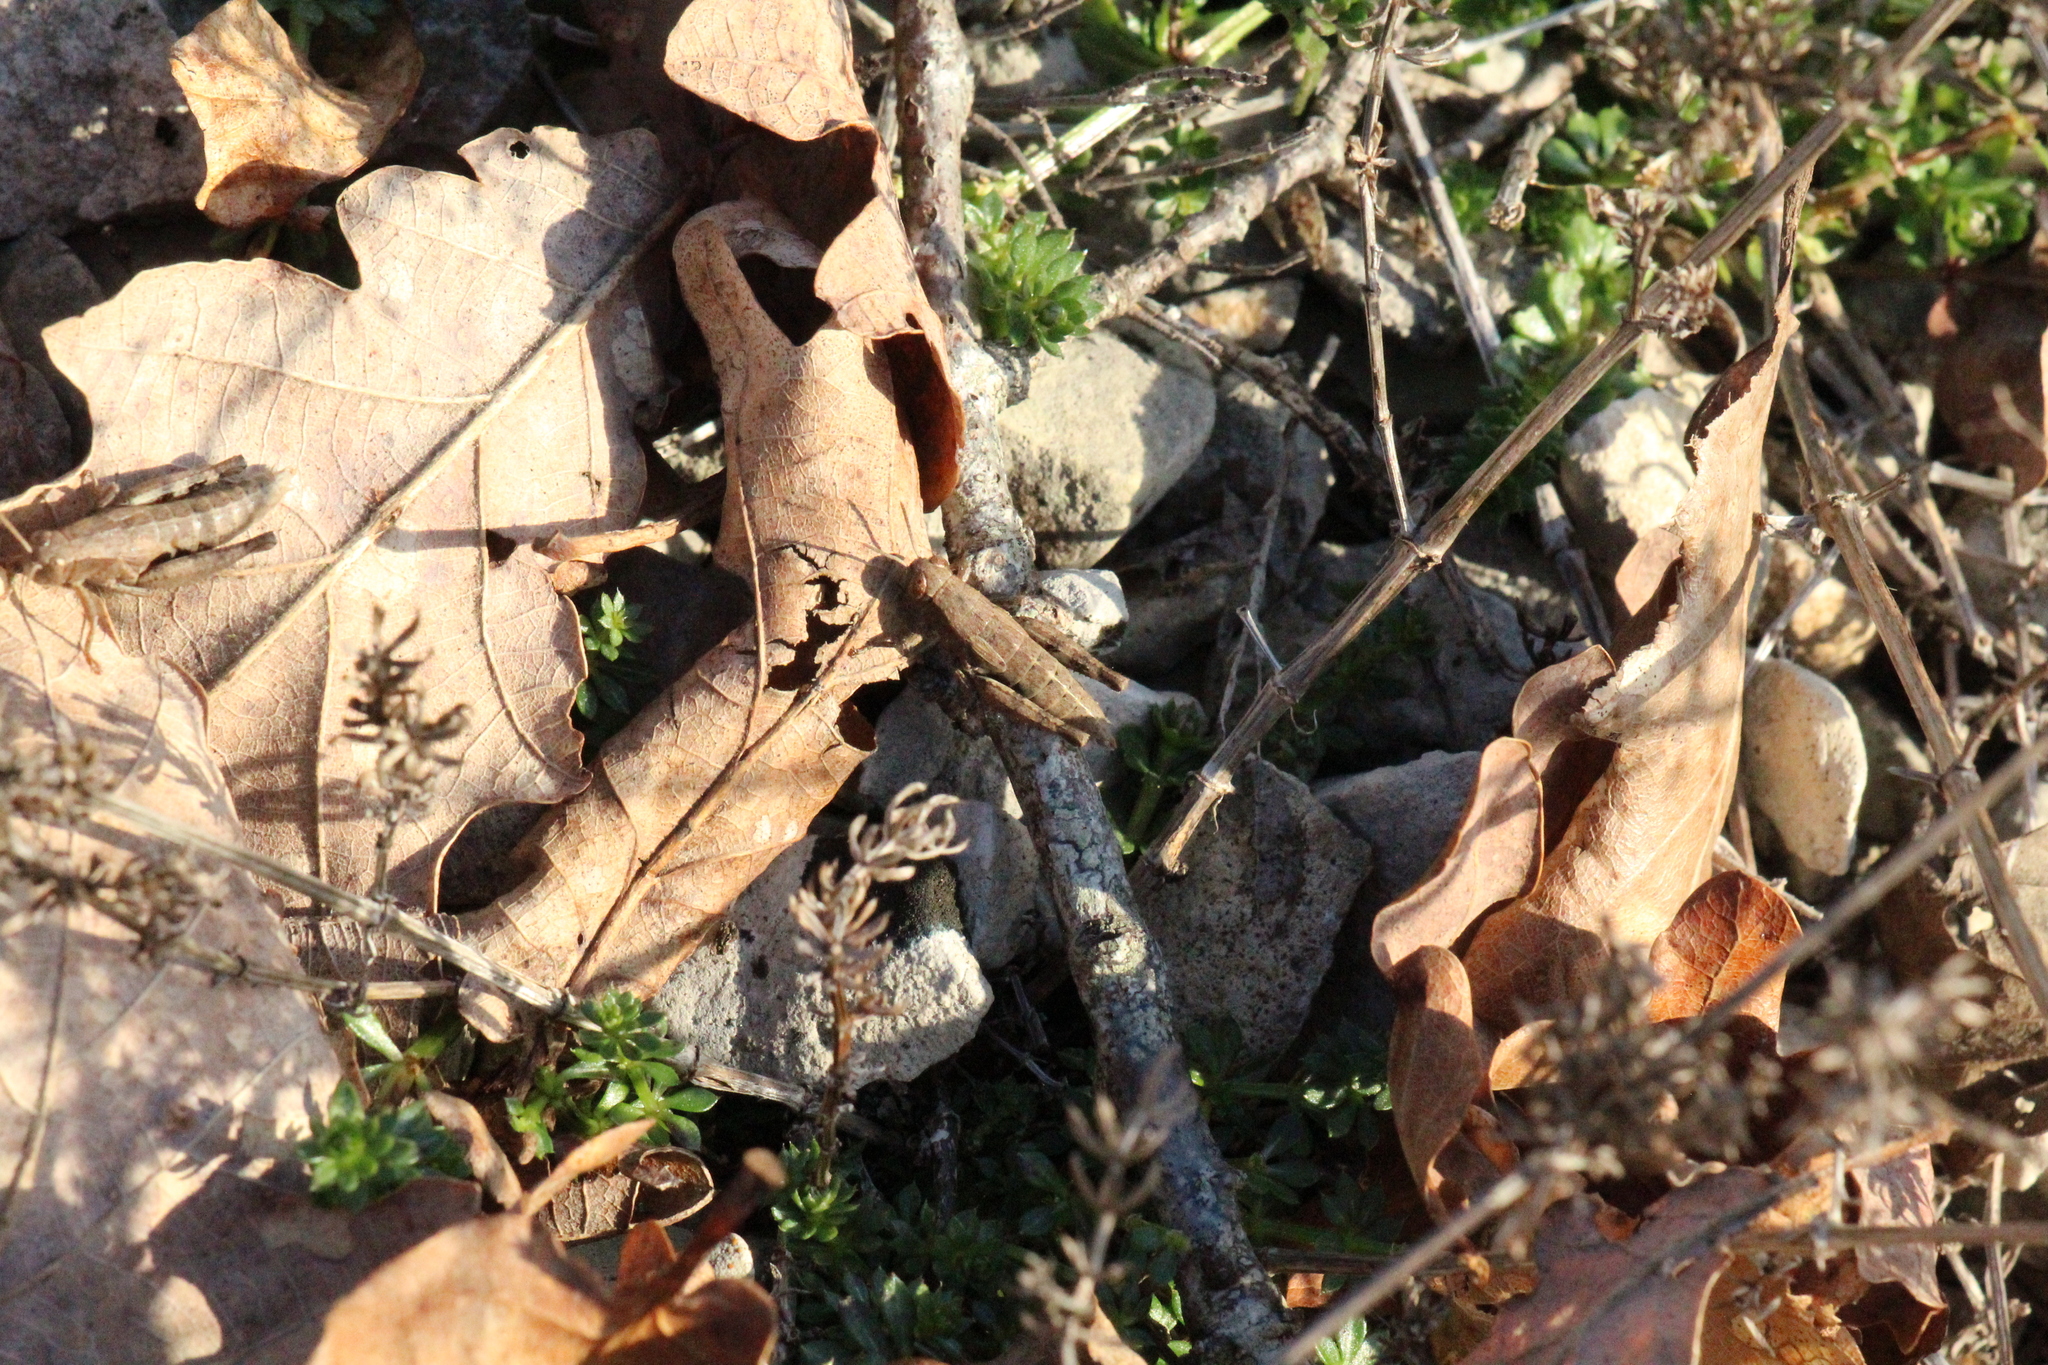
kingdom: Animalia
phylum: Arthropoda
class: Insecta
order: Orthoptera
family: Acrididae
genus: Pezotettix
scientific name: Pezotettix giornae
